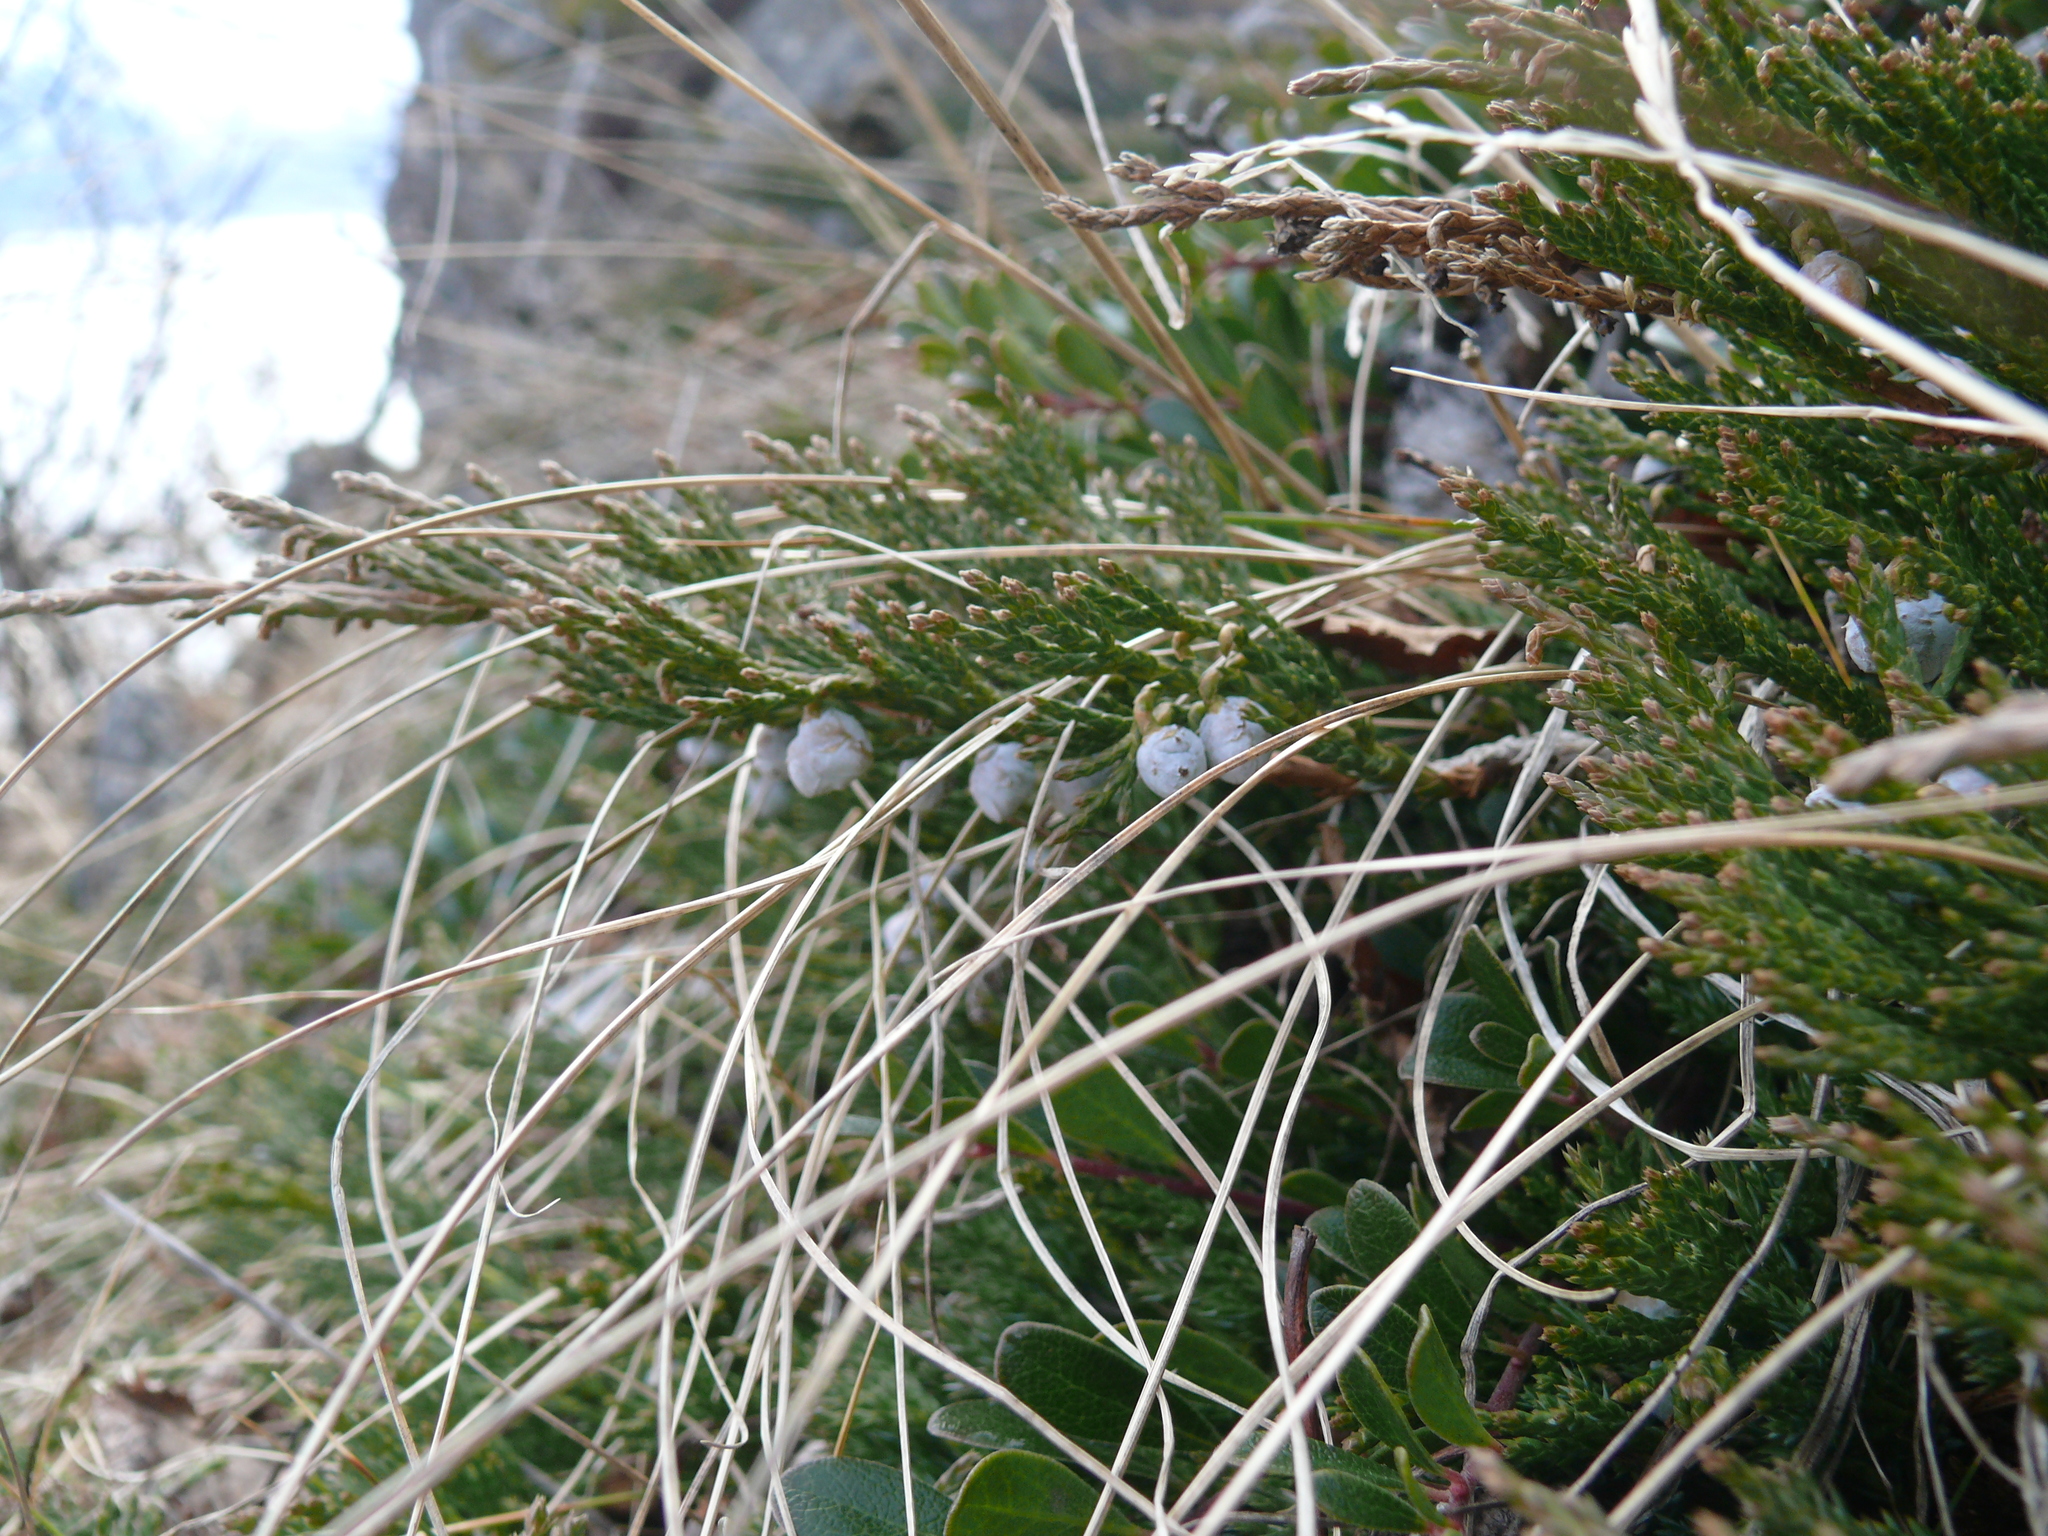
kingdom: Plantae
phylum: Tracheophyta
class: Pinopsida
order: Pinales
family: Cupressaceae
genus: Juniperus
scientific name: Juniperus horizontalis
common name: Creeping juniper
